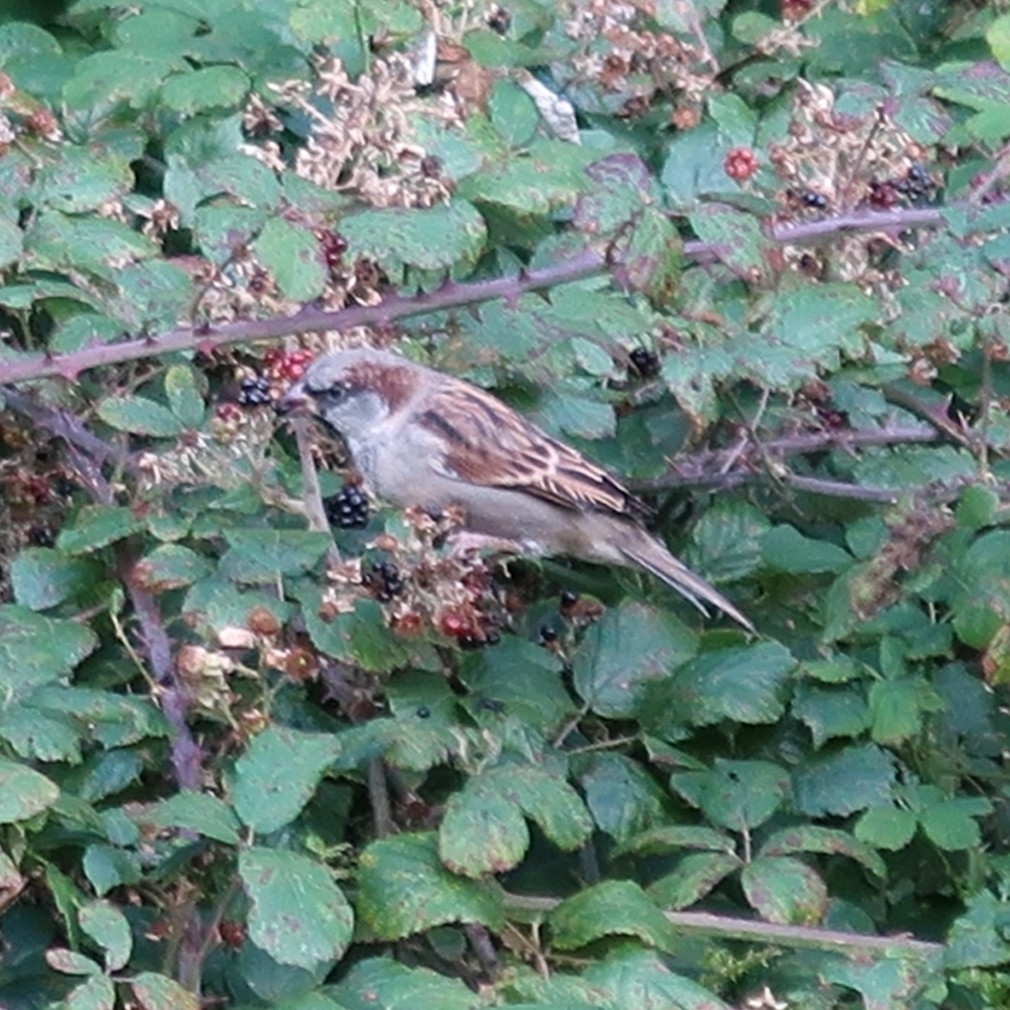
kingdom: Animalia
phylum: Chordata
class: Aves
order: Passeriformes
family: Passeridae
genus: Passer
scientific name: Passer domesticus
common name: House sparrow
